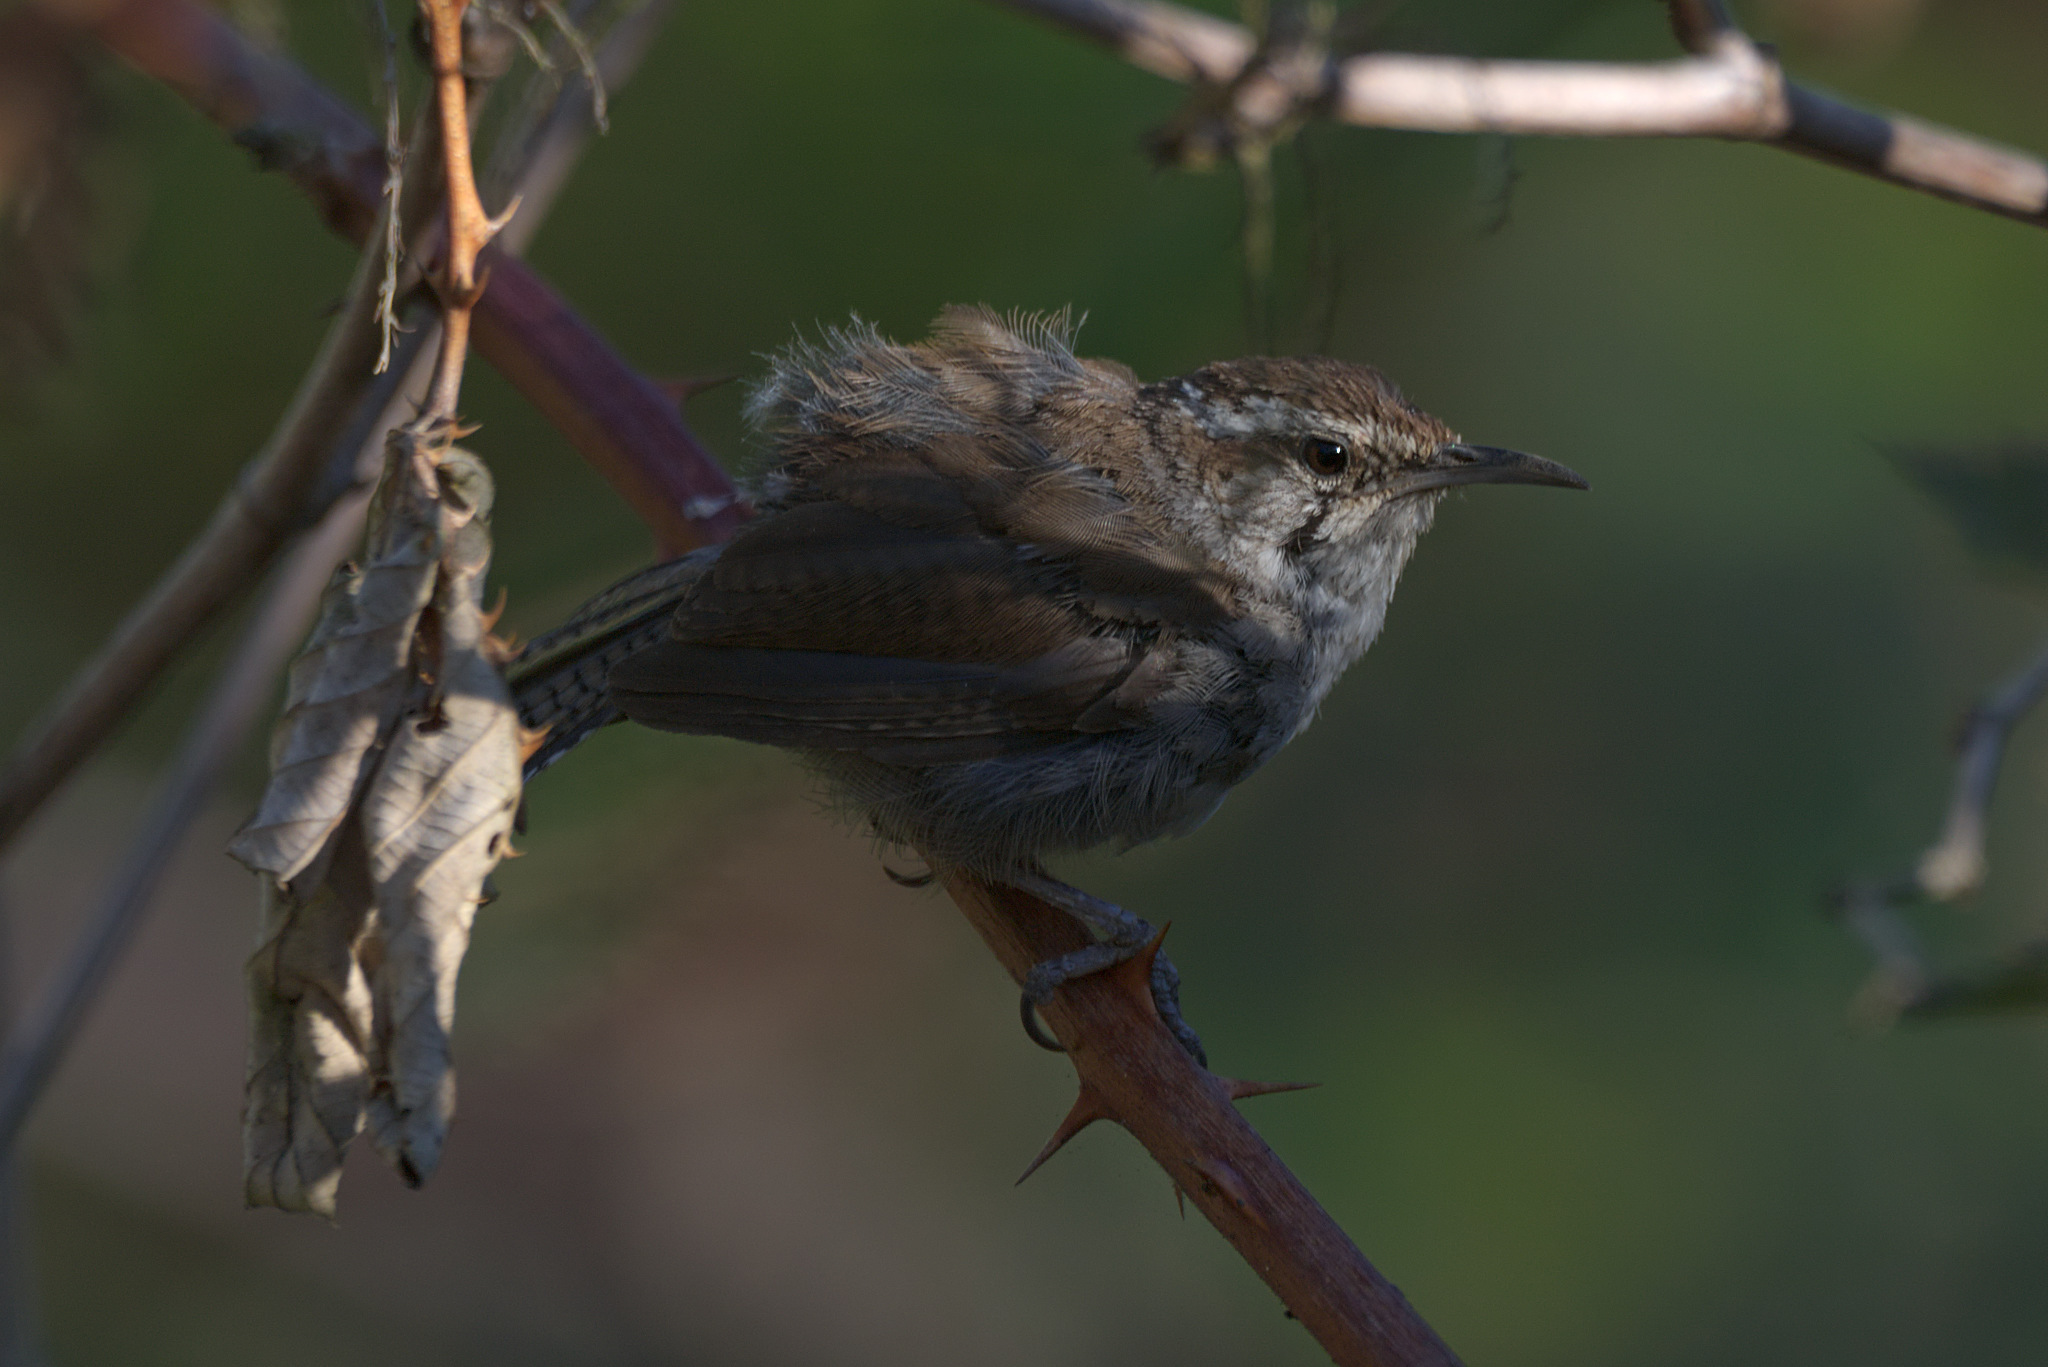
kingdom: Animalia
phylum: Chordata
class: Aves
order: Passeriformes
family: Troglodytidae
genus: Thryomanes
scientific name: Thryomanes bewickii
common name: Bewick's wren
